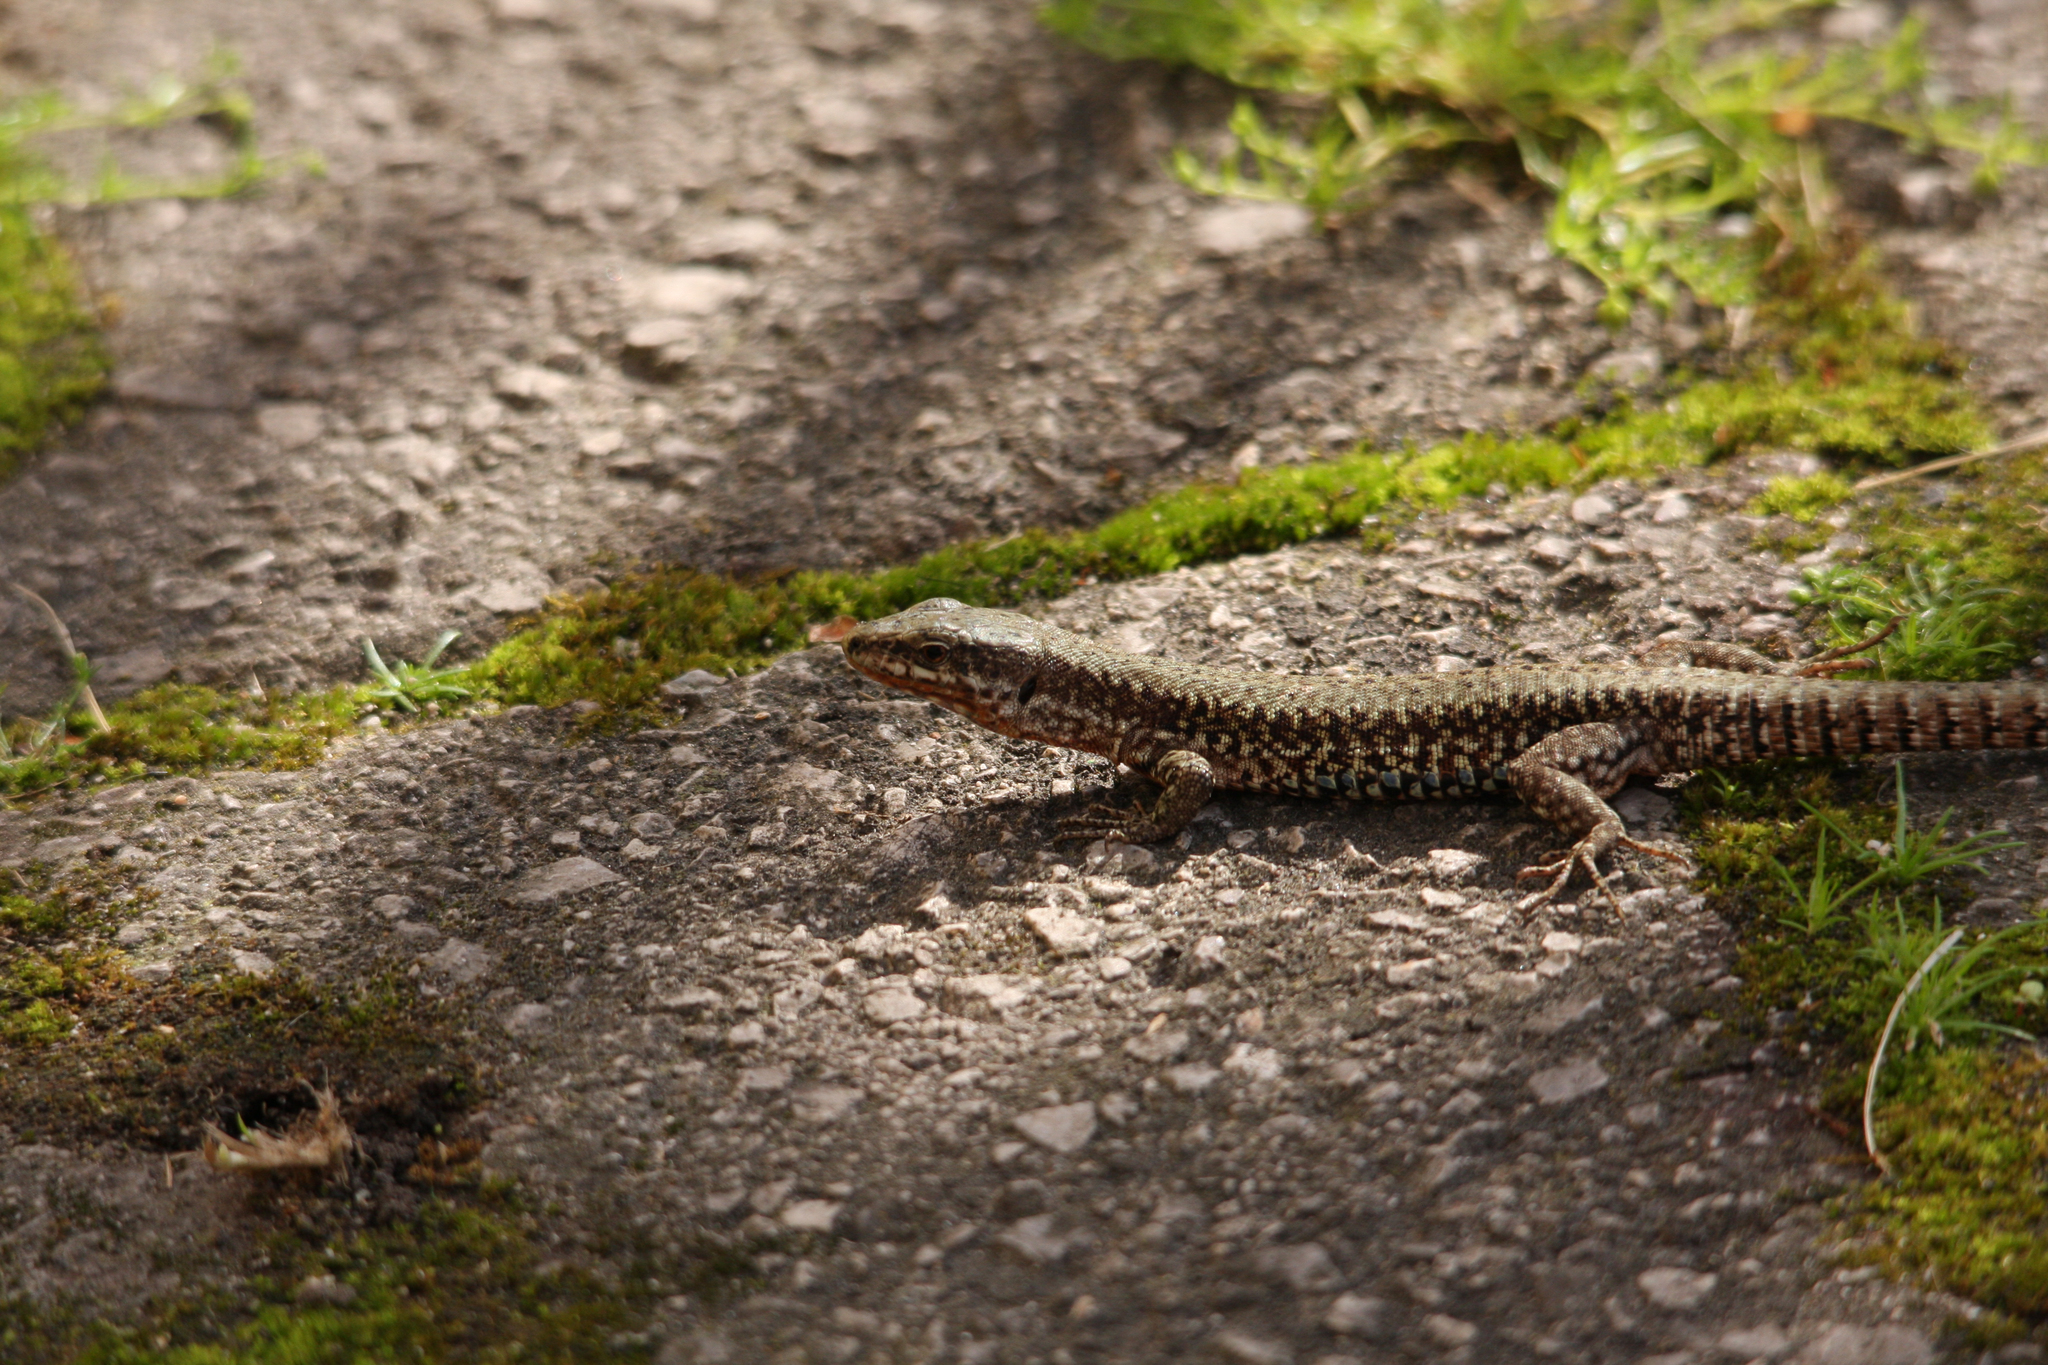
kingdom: Animalia
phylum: Chordata
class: Squamata
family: Lacertidae
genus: Podarcis
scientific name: Podarcis muralis
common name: Common wall lizard
